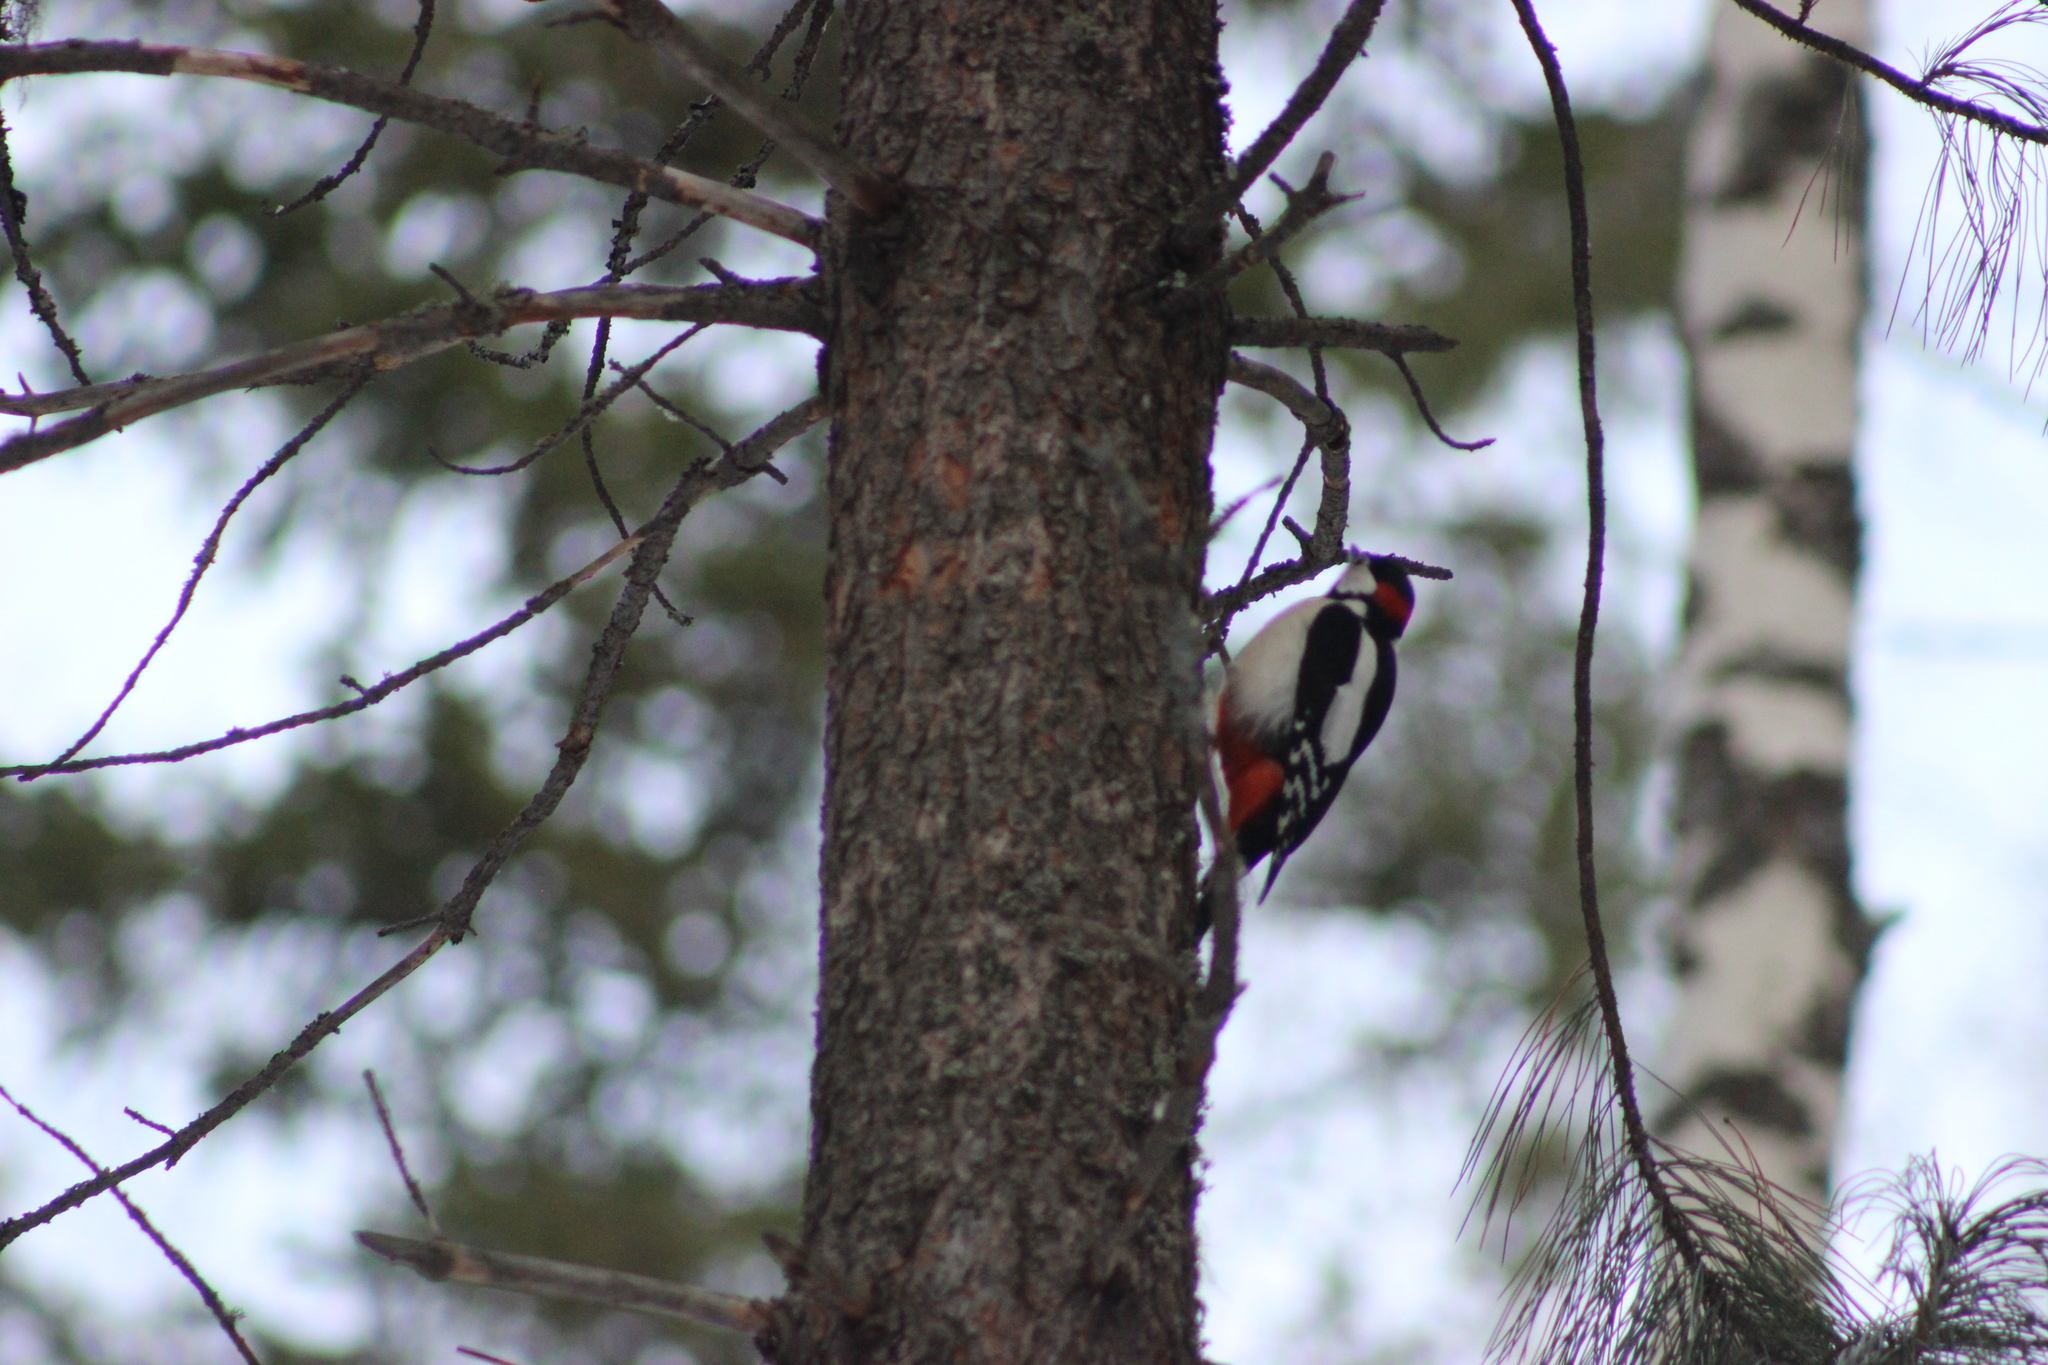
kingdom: Animalia
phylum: Chordata
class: Aves
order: Piciformes
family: Picidae
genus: Dendrocopos
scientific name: Dendrocopos major
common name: Great spotted woodpecker
